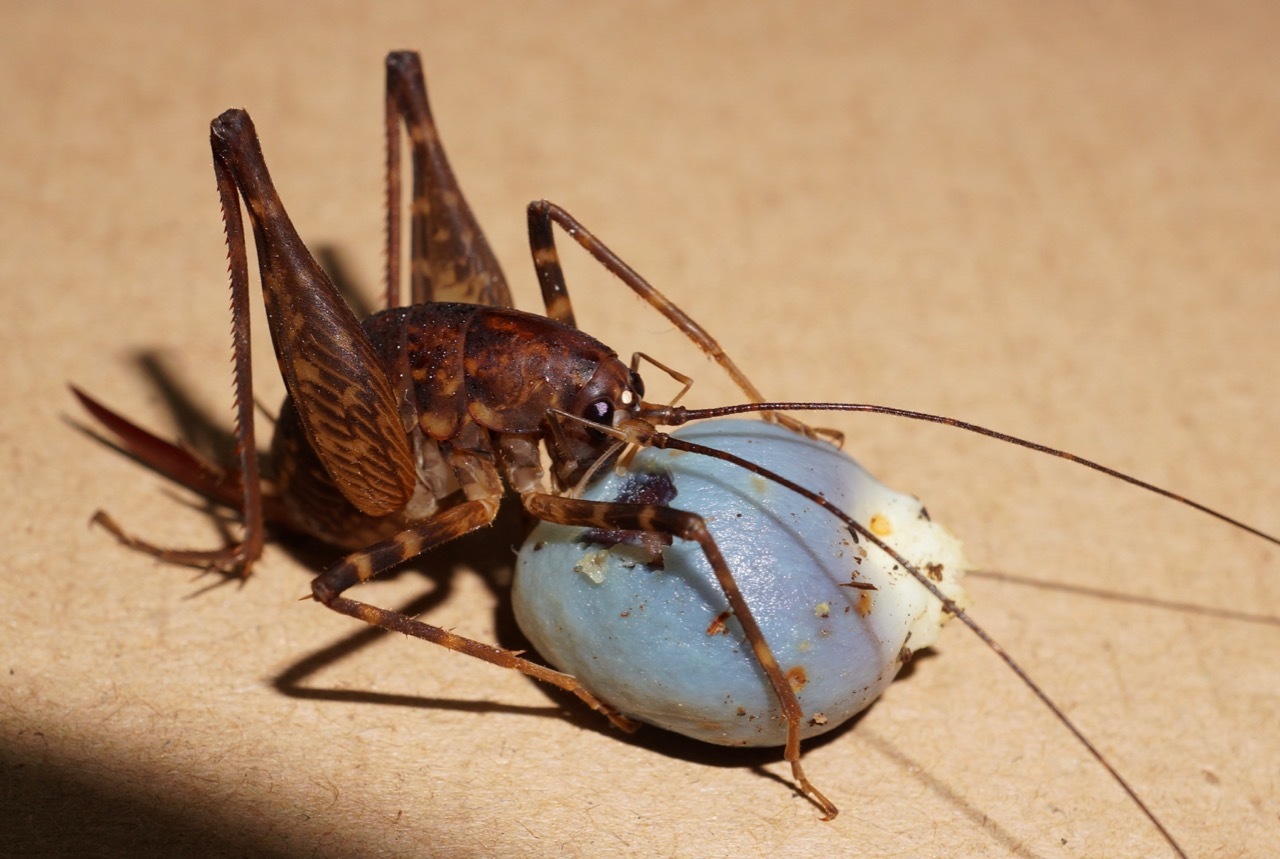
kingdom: Animalia
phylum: Arthropoda
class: Insecta
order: Orthoptera
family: Rhaphidophoridae
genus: Miotopus
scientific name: Miotopus diversus
